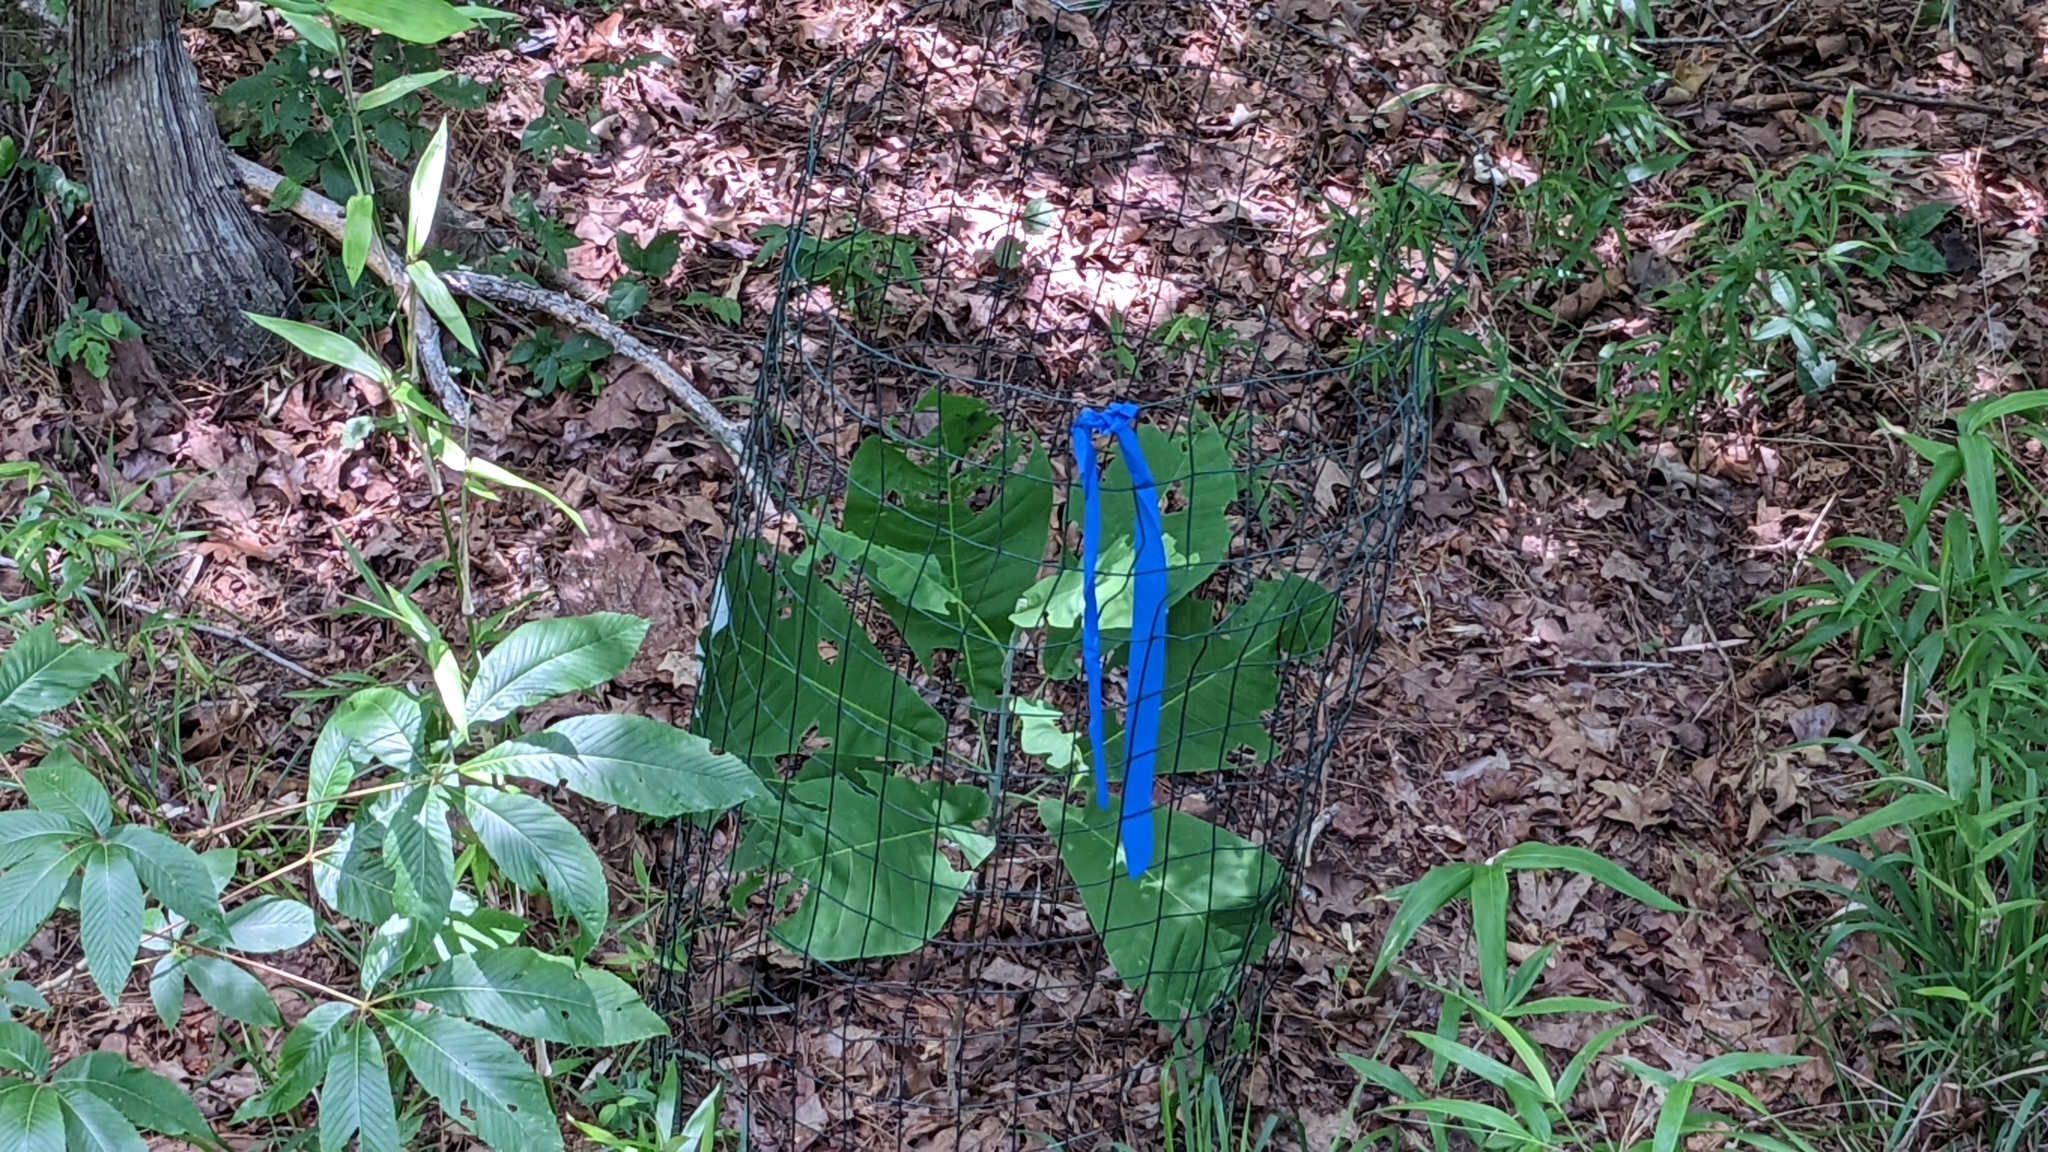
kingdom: Plantae
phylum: Tracheophyta
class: Magnoliopsida
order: Magnoliales
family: Magnoliaceae
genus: Magnolia
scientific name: Magnolia macrophylla
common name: Big-leaf magnolia
